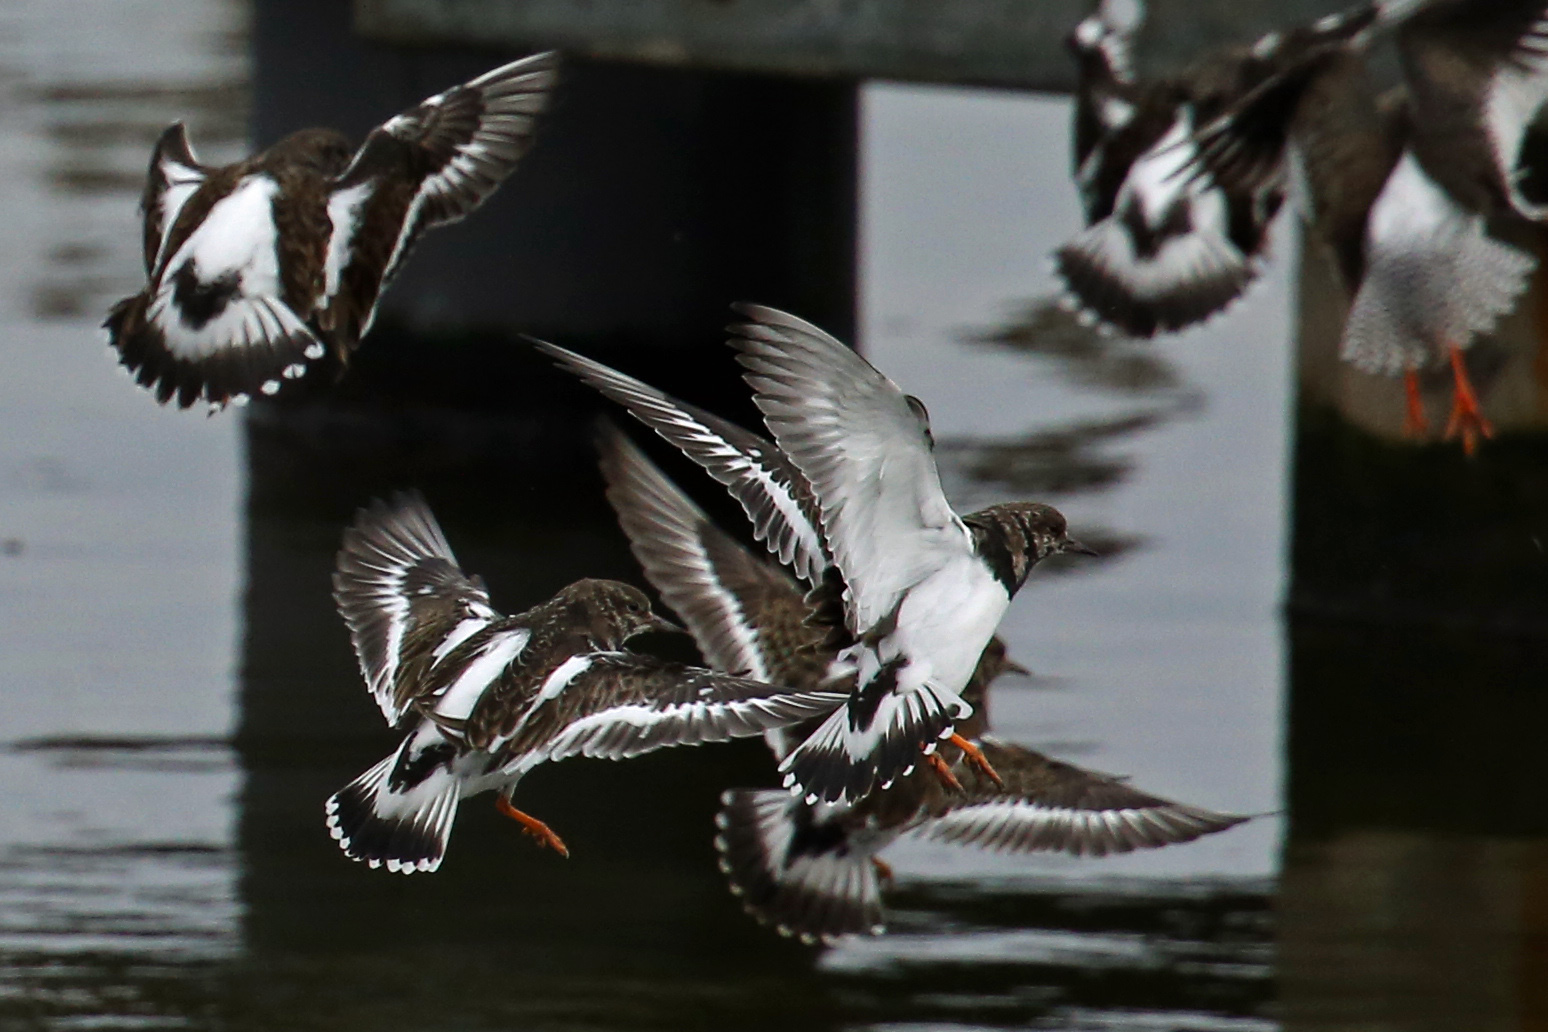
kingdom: Animalia
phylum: Chordata
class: Aves
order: Charadriiformes
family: Scolopacidae
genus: Arenaria
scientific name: Arenaria interpres
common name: Ruddy turnstone
